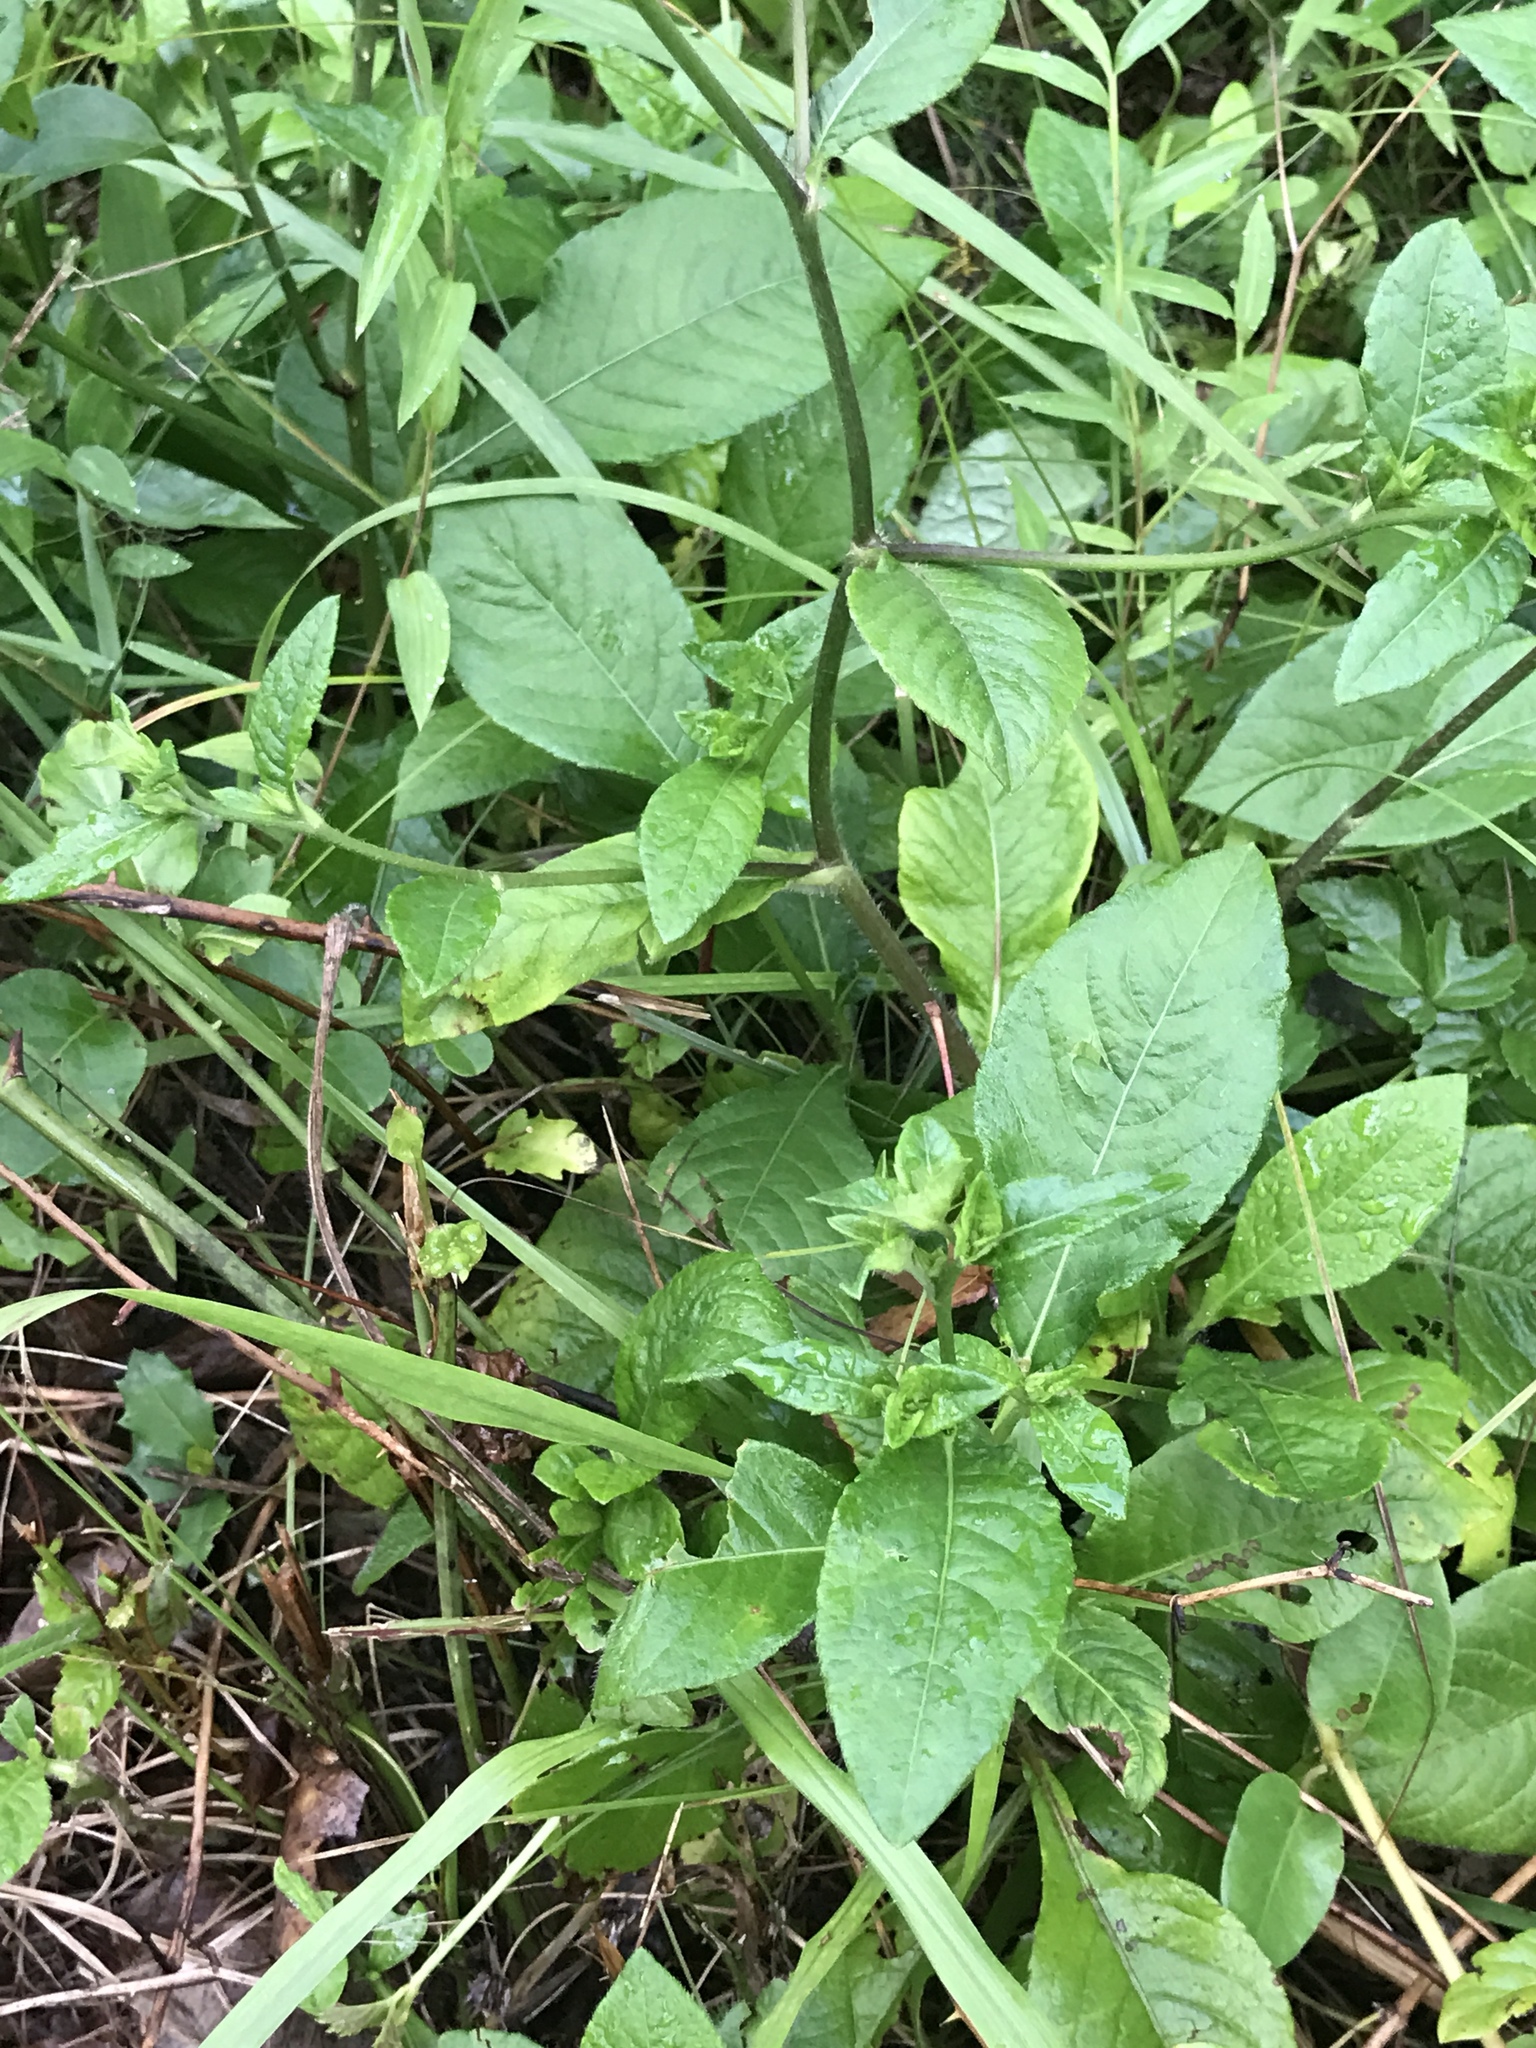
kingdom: Plantae
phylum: Tracheophyta
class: Magnoliopsida
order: Asterales
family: Asteraceae
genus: Elephantopus
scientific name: Elephantopus carolinianus
